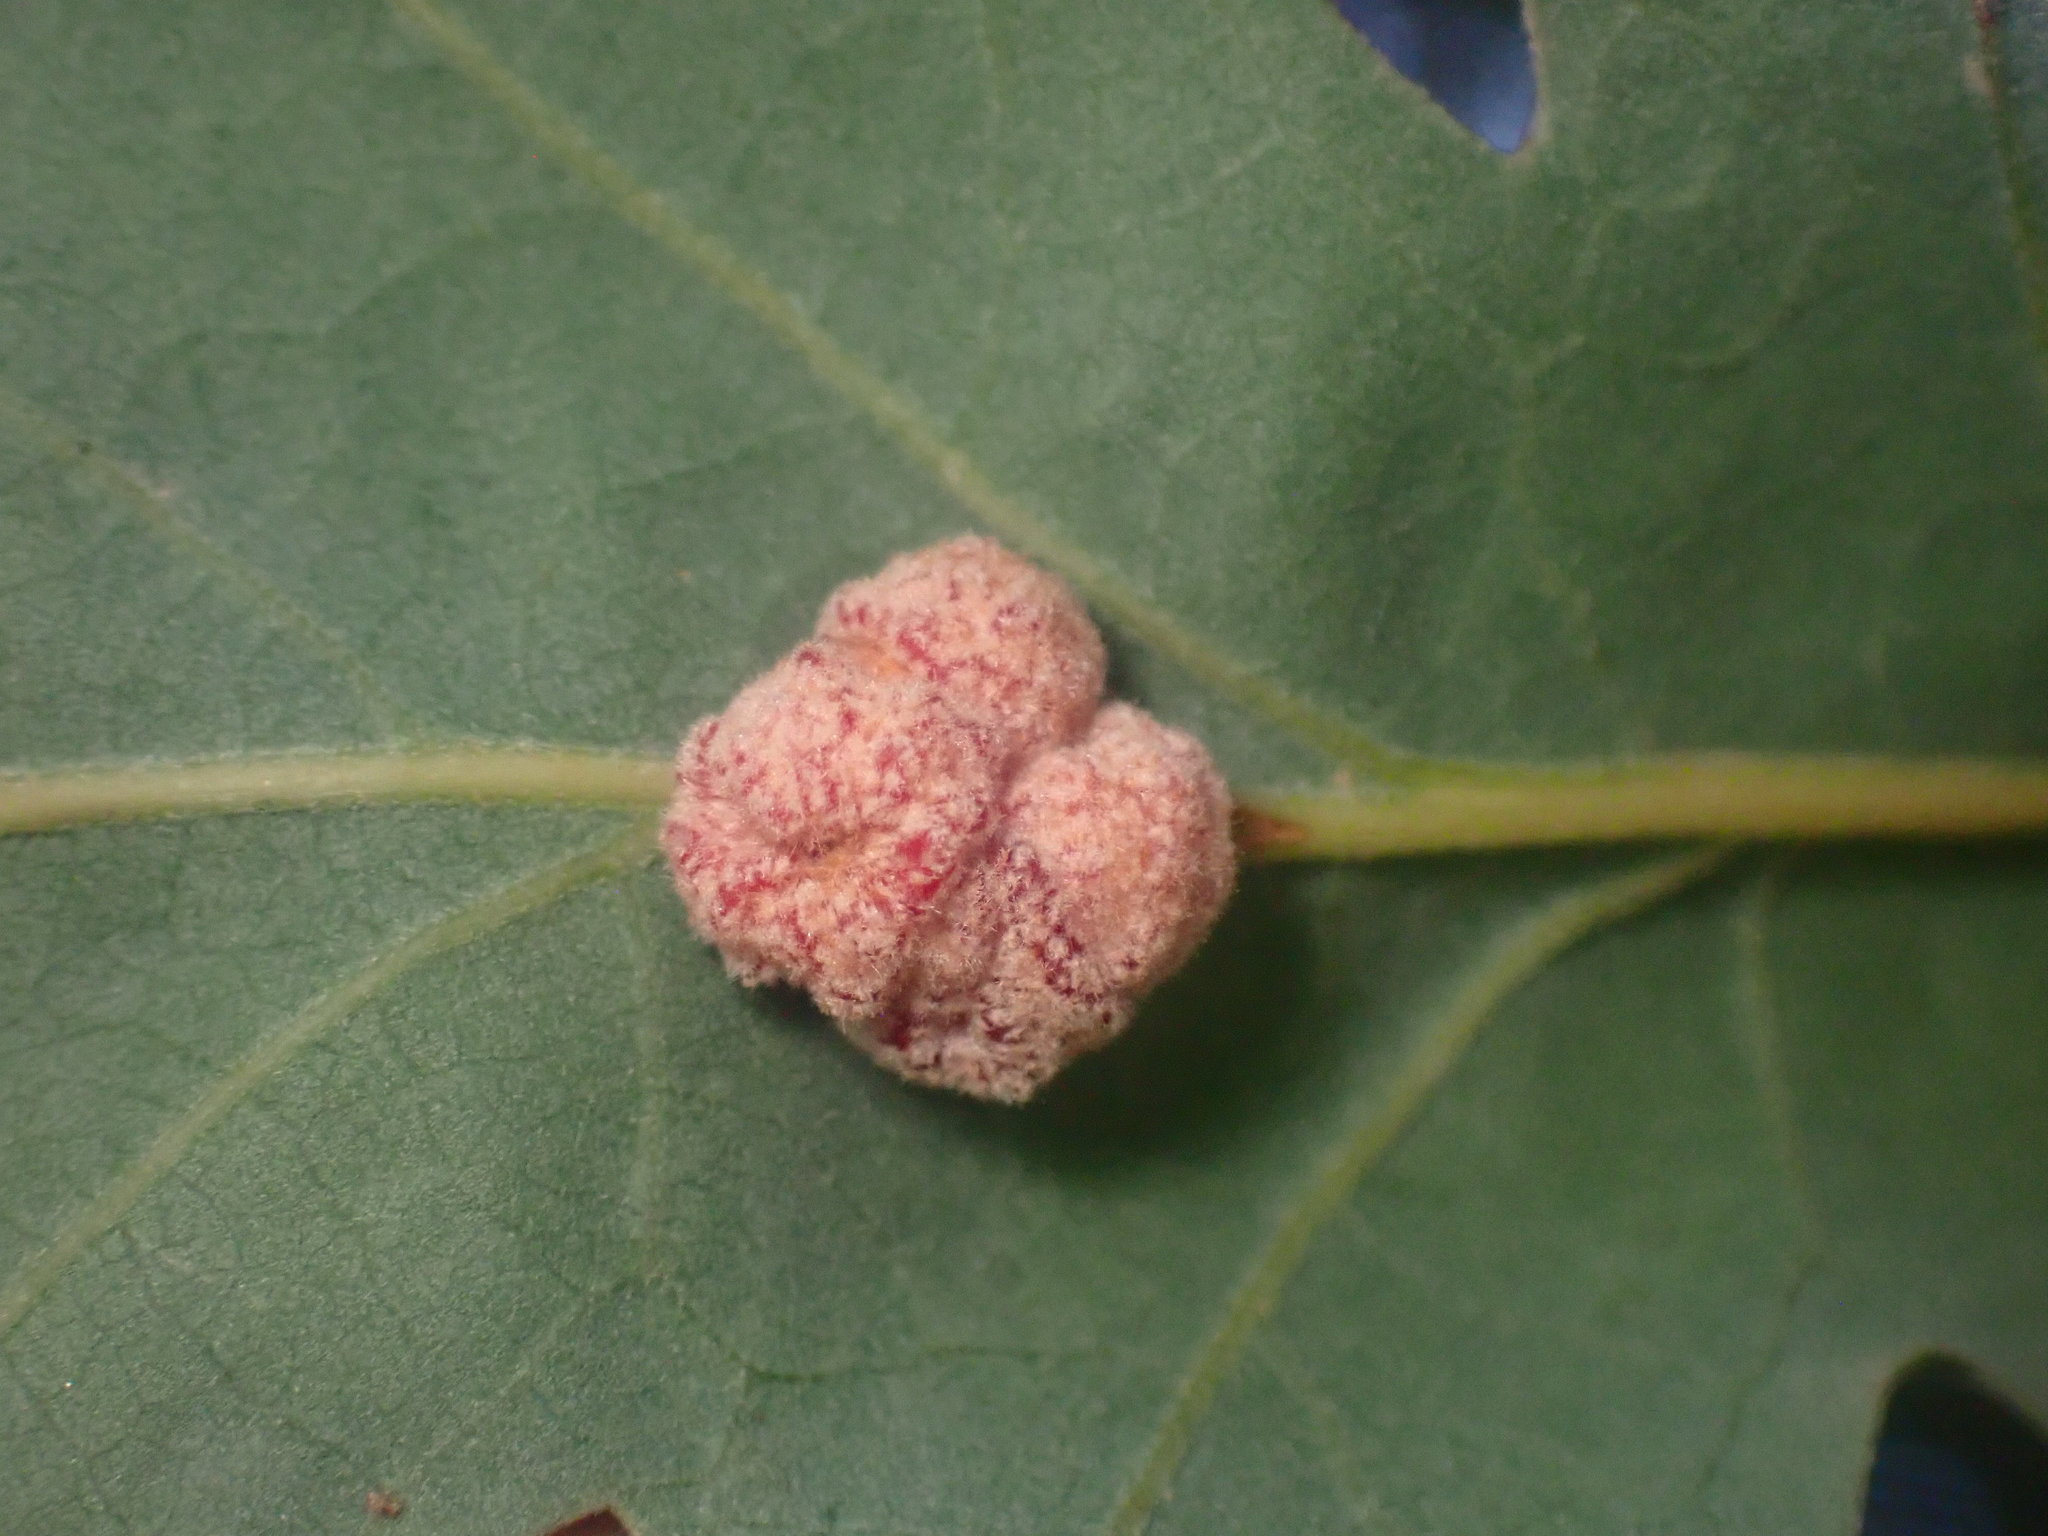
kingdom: Animalia
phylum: Arthropoda
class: Insecta
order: Hymenoptera
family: Cynipidae
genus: Andricus
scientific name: Andricus
